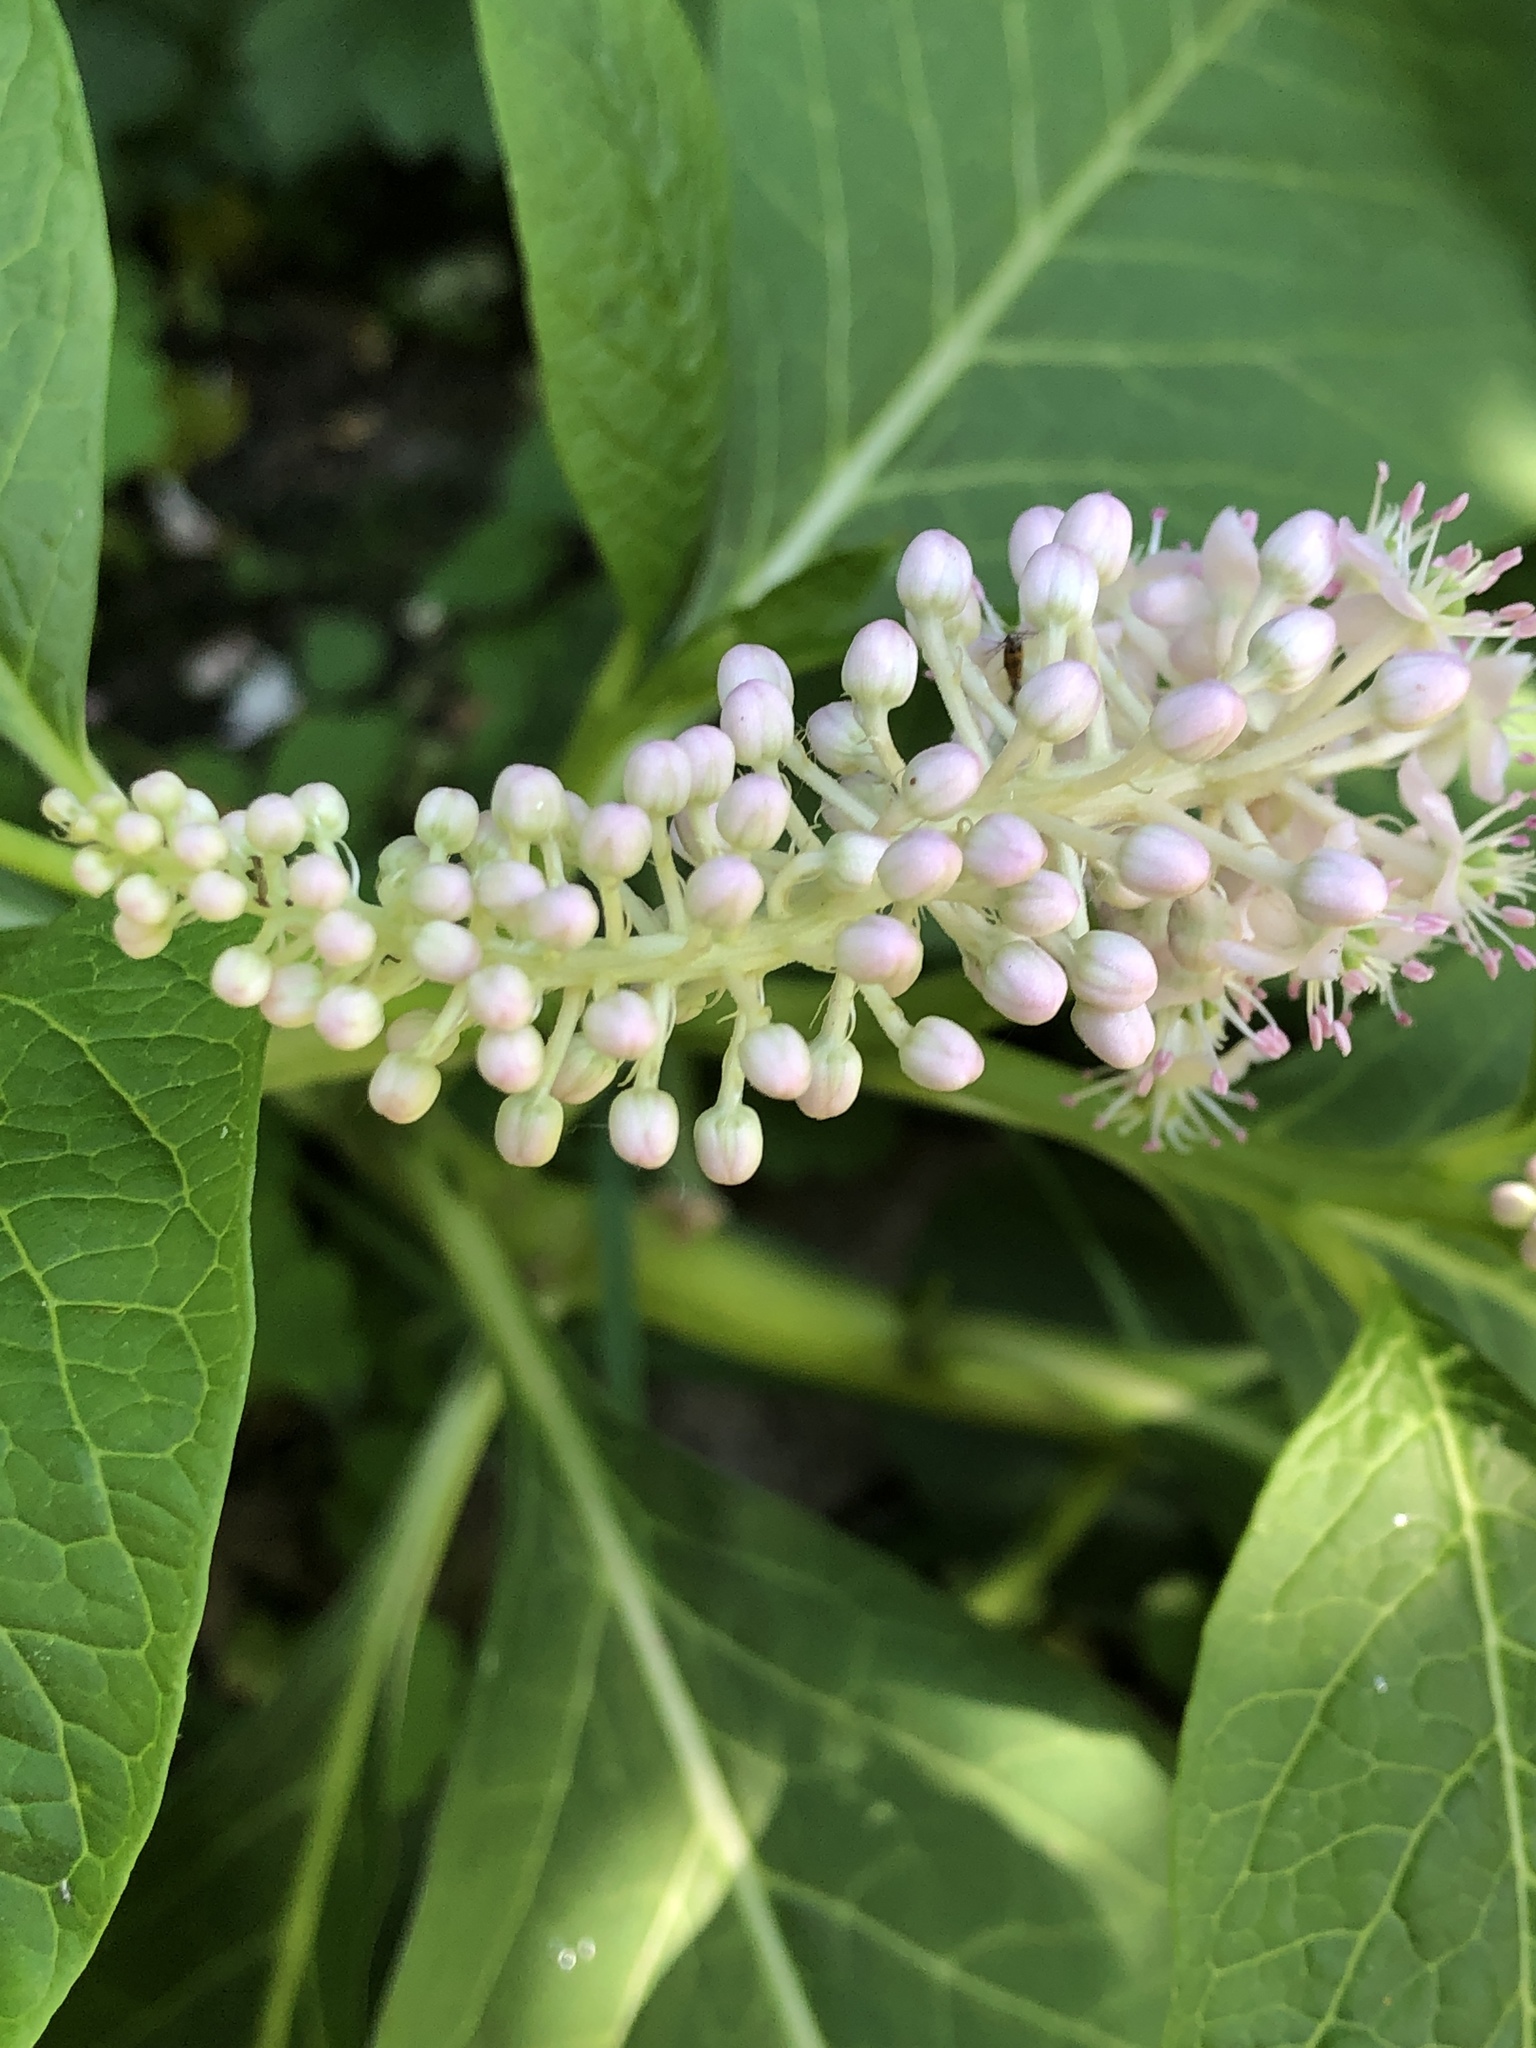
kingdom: Plantae
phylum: Tracheophyta
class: Magnoliopsida
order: Caryophyllales
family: Phytolaccaceae
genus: Phytolacca
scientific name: Phytolacca acinosa
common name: Indian pokeweed
